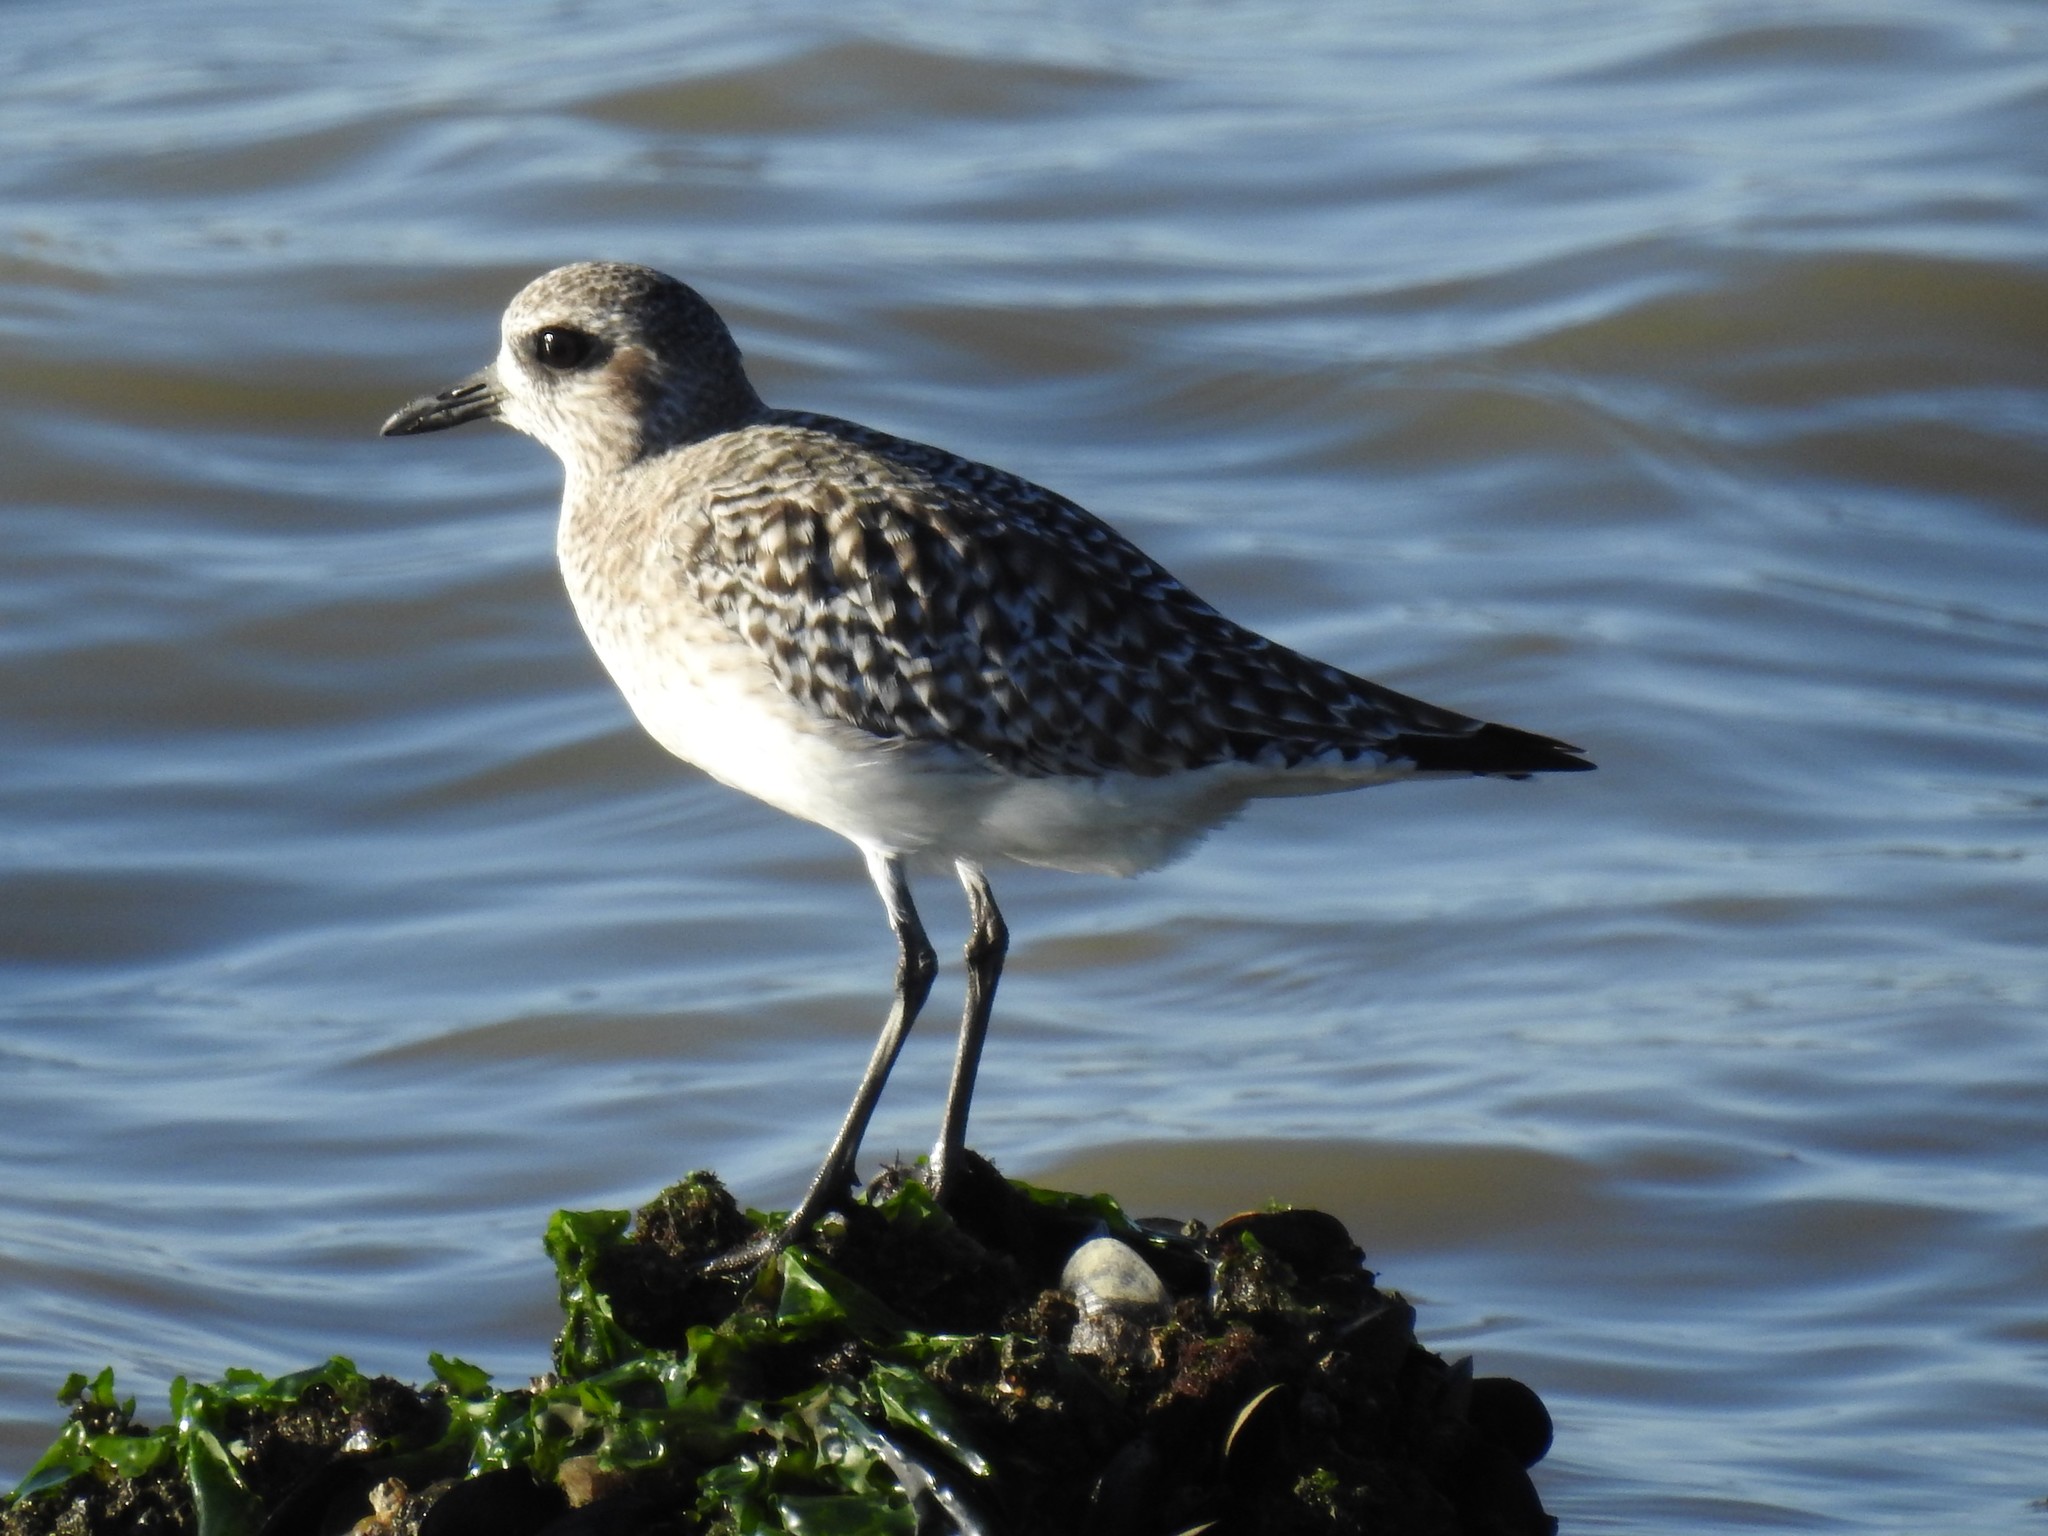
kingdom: Animalia
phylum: Chordata
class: Aves
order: Charadriiformes
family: Charadriidae
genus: Pluvialis
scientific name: Pluvialis squatarola
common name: Grey plover
